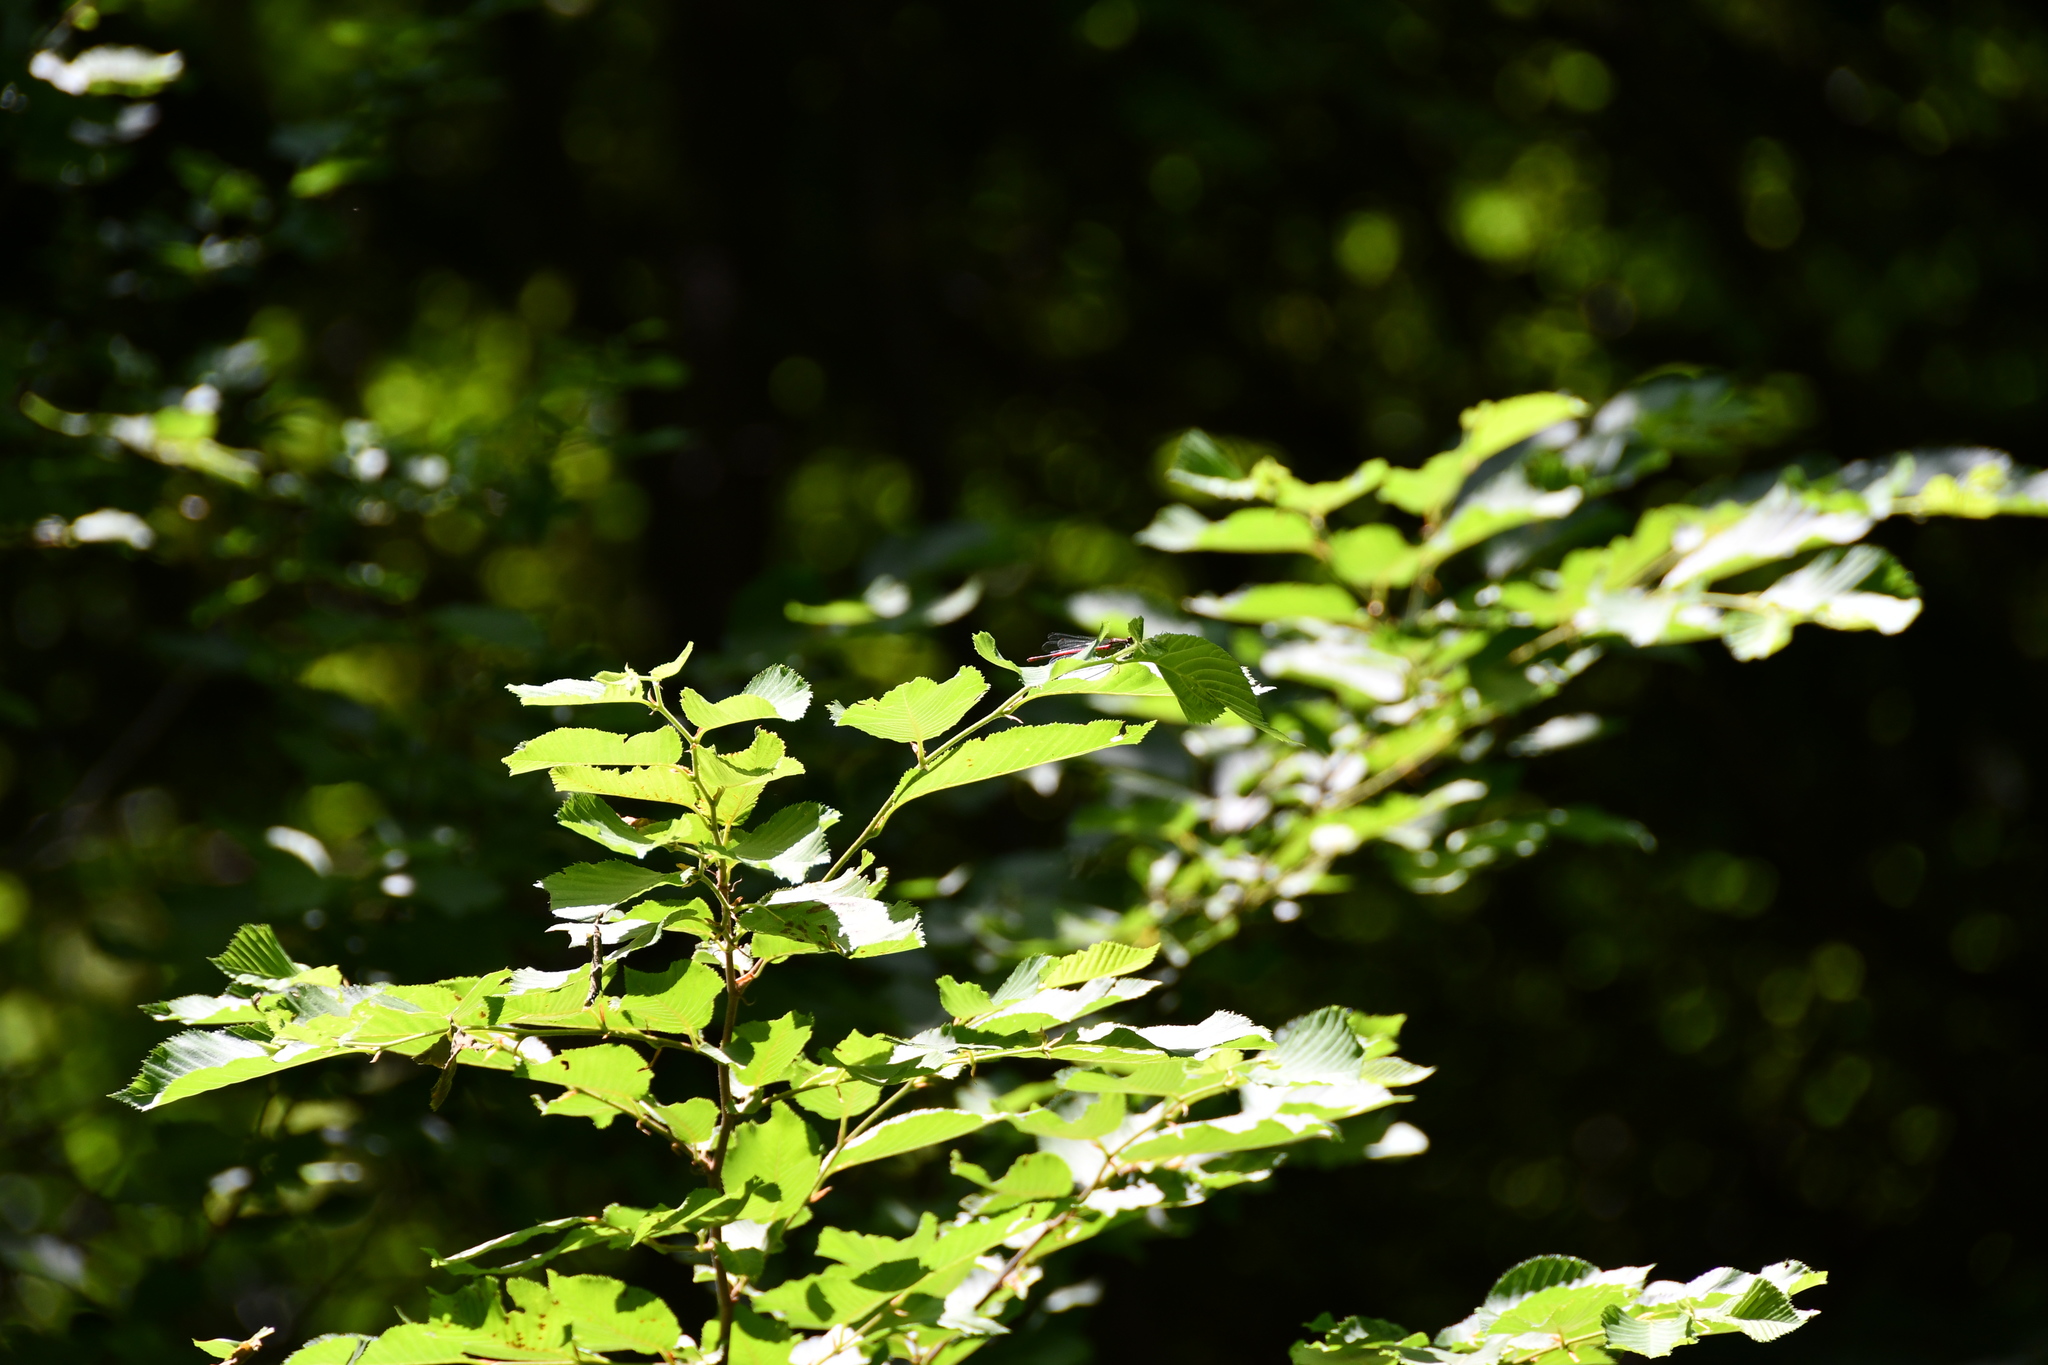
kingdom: Animalia
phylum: Arthropoda
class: Insecta
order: Odonata
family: Coenagrionidae
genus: Pyrrhosoma
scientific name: Pyrrhosoma nymphula
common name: Large red damsel
